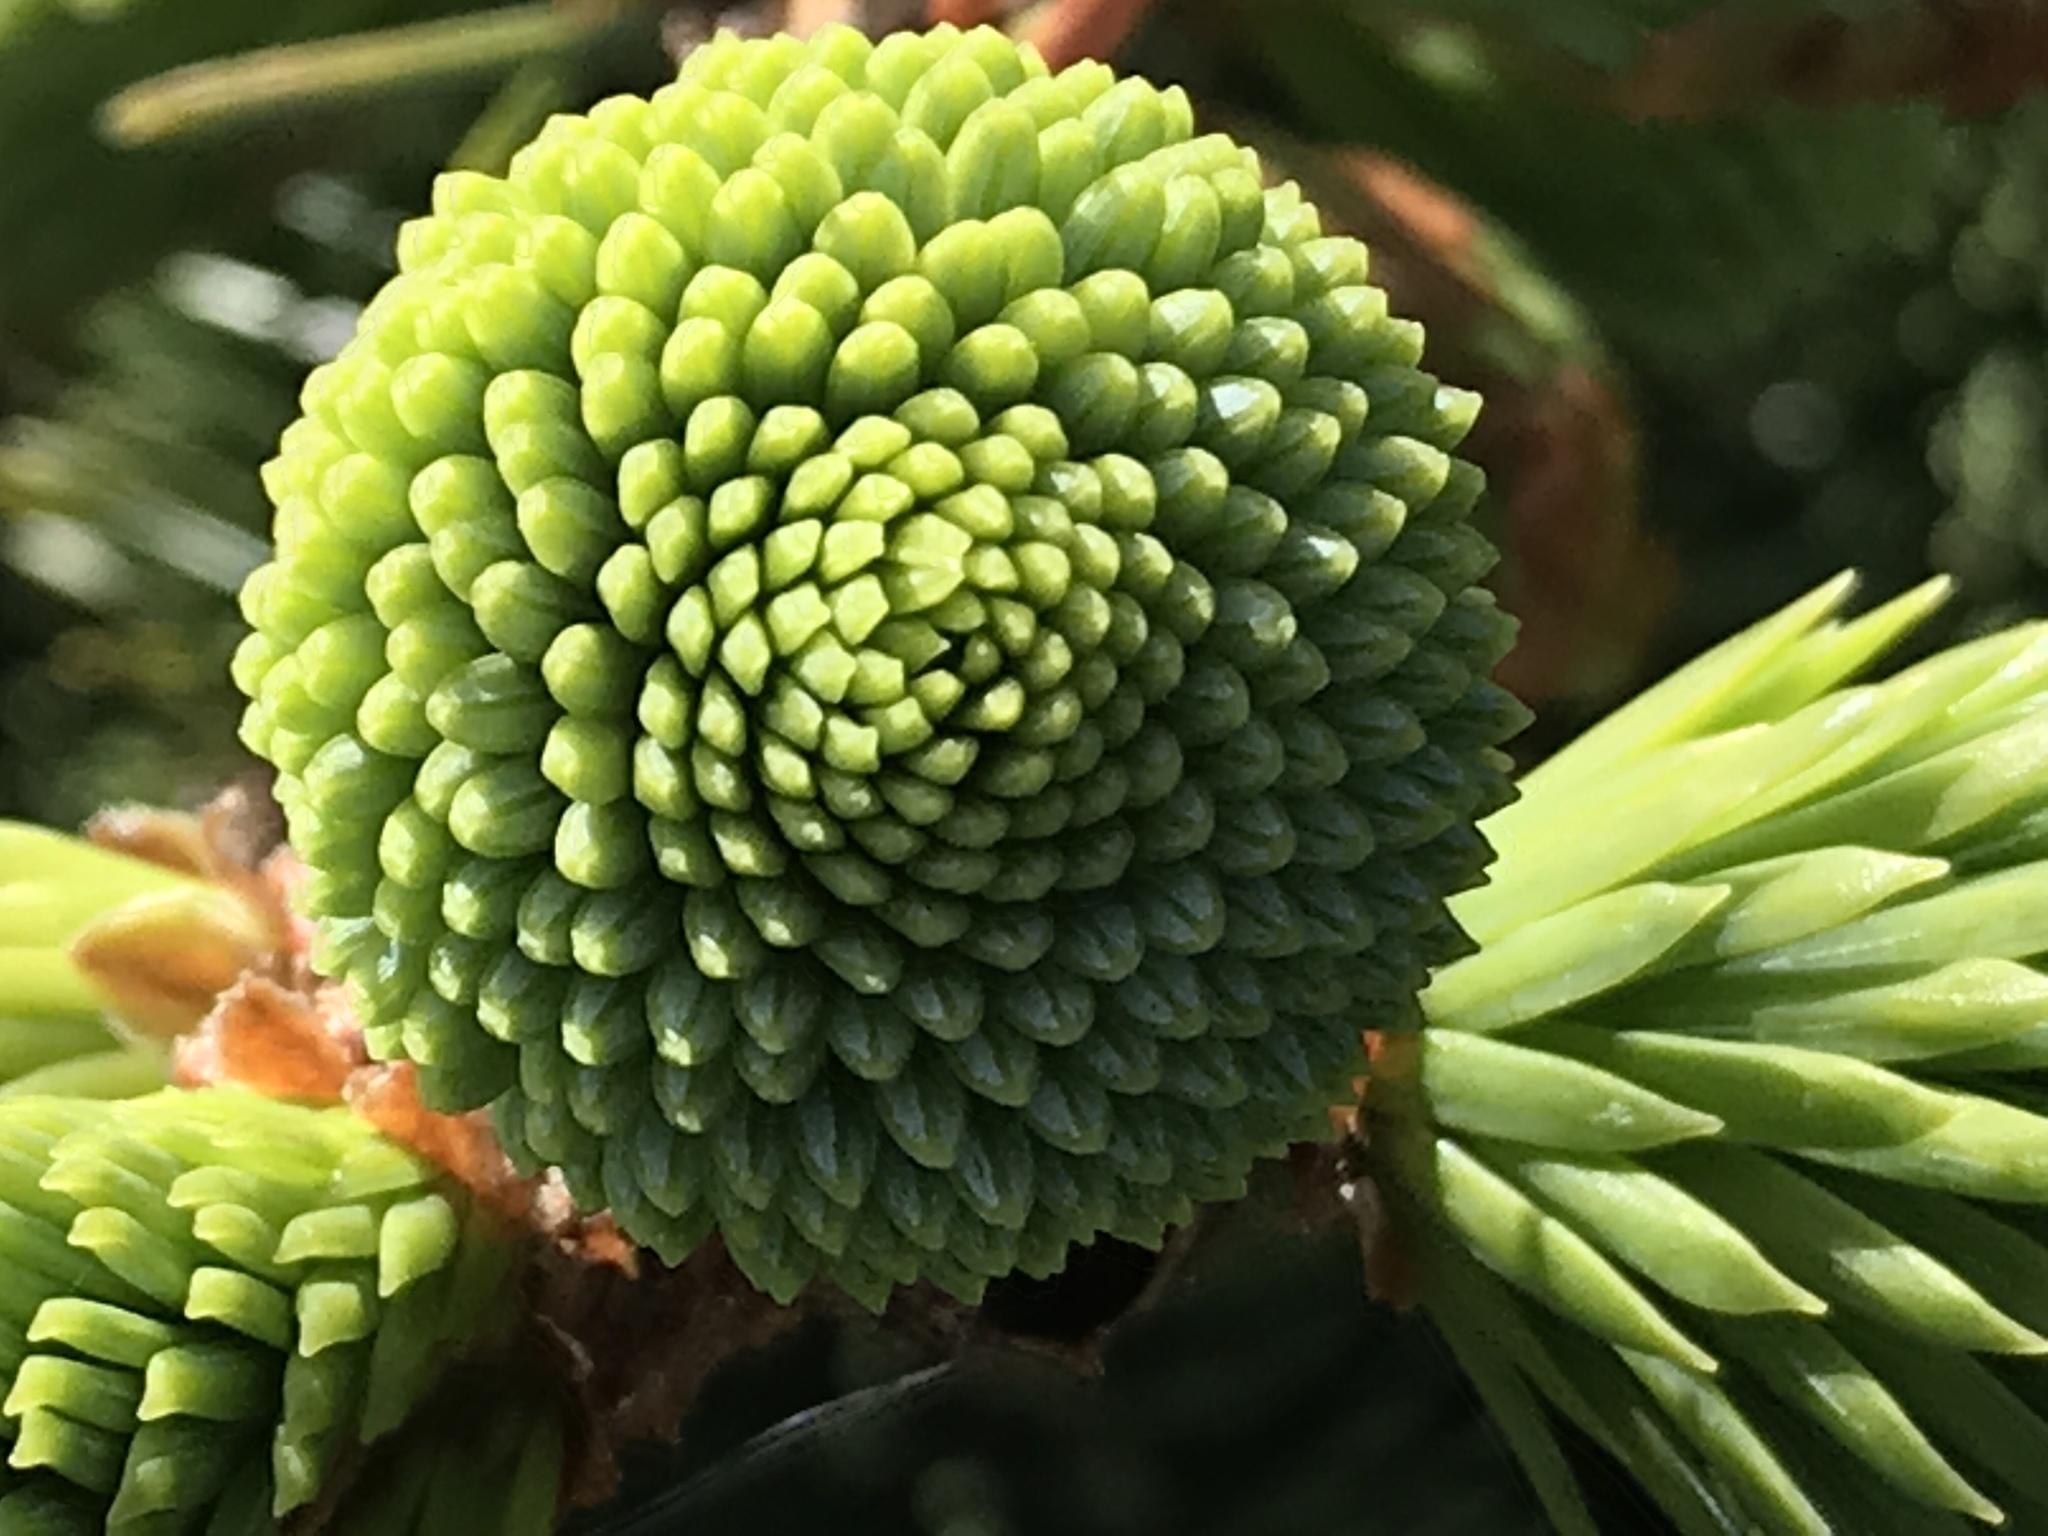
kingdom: Plantae
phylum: Tracheophyta
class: Pinopsida
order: Pinales
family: Pinaceae
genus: Picea
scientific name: Picea sitchensis
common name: Sitka spruce
